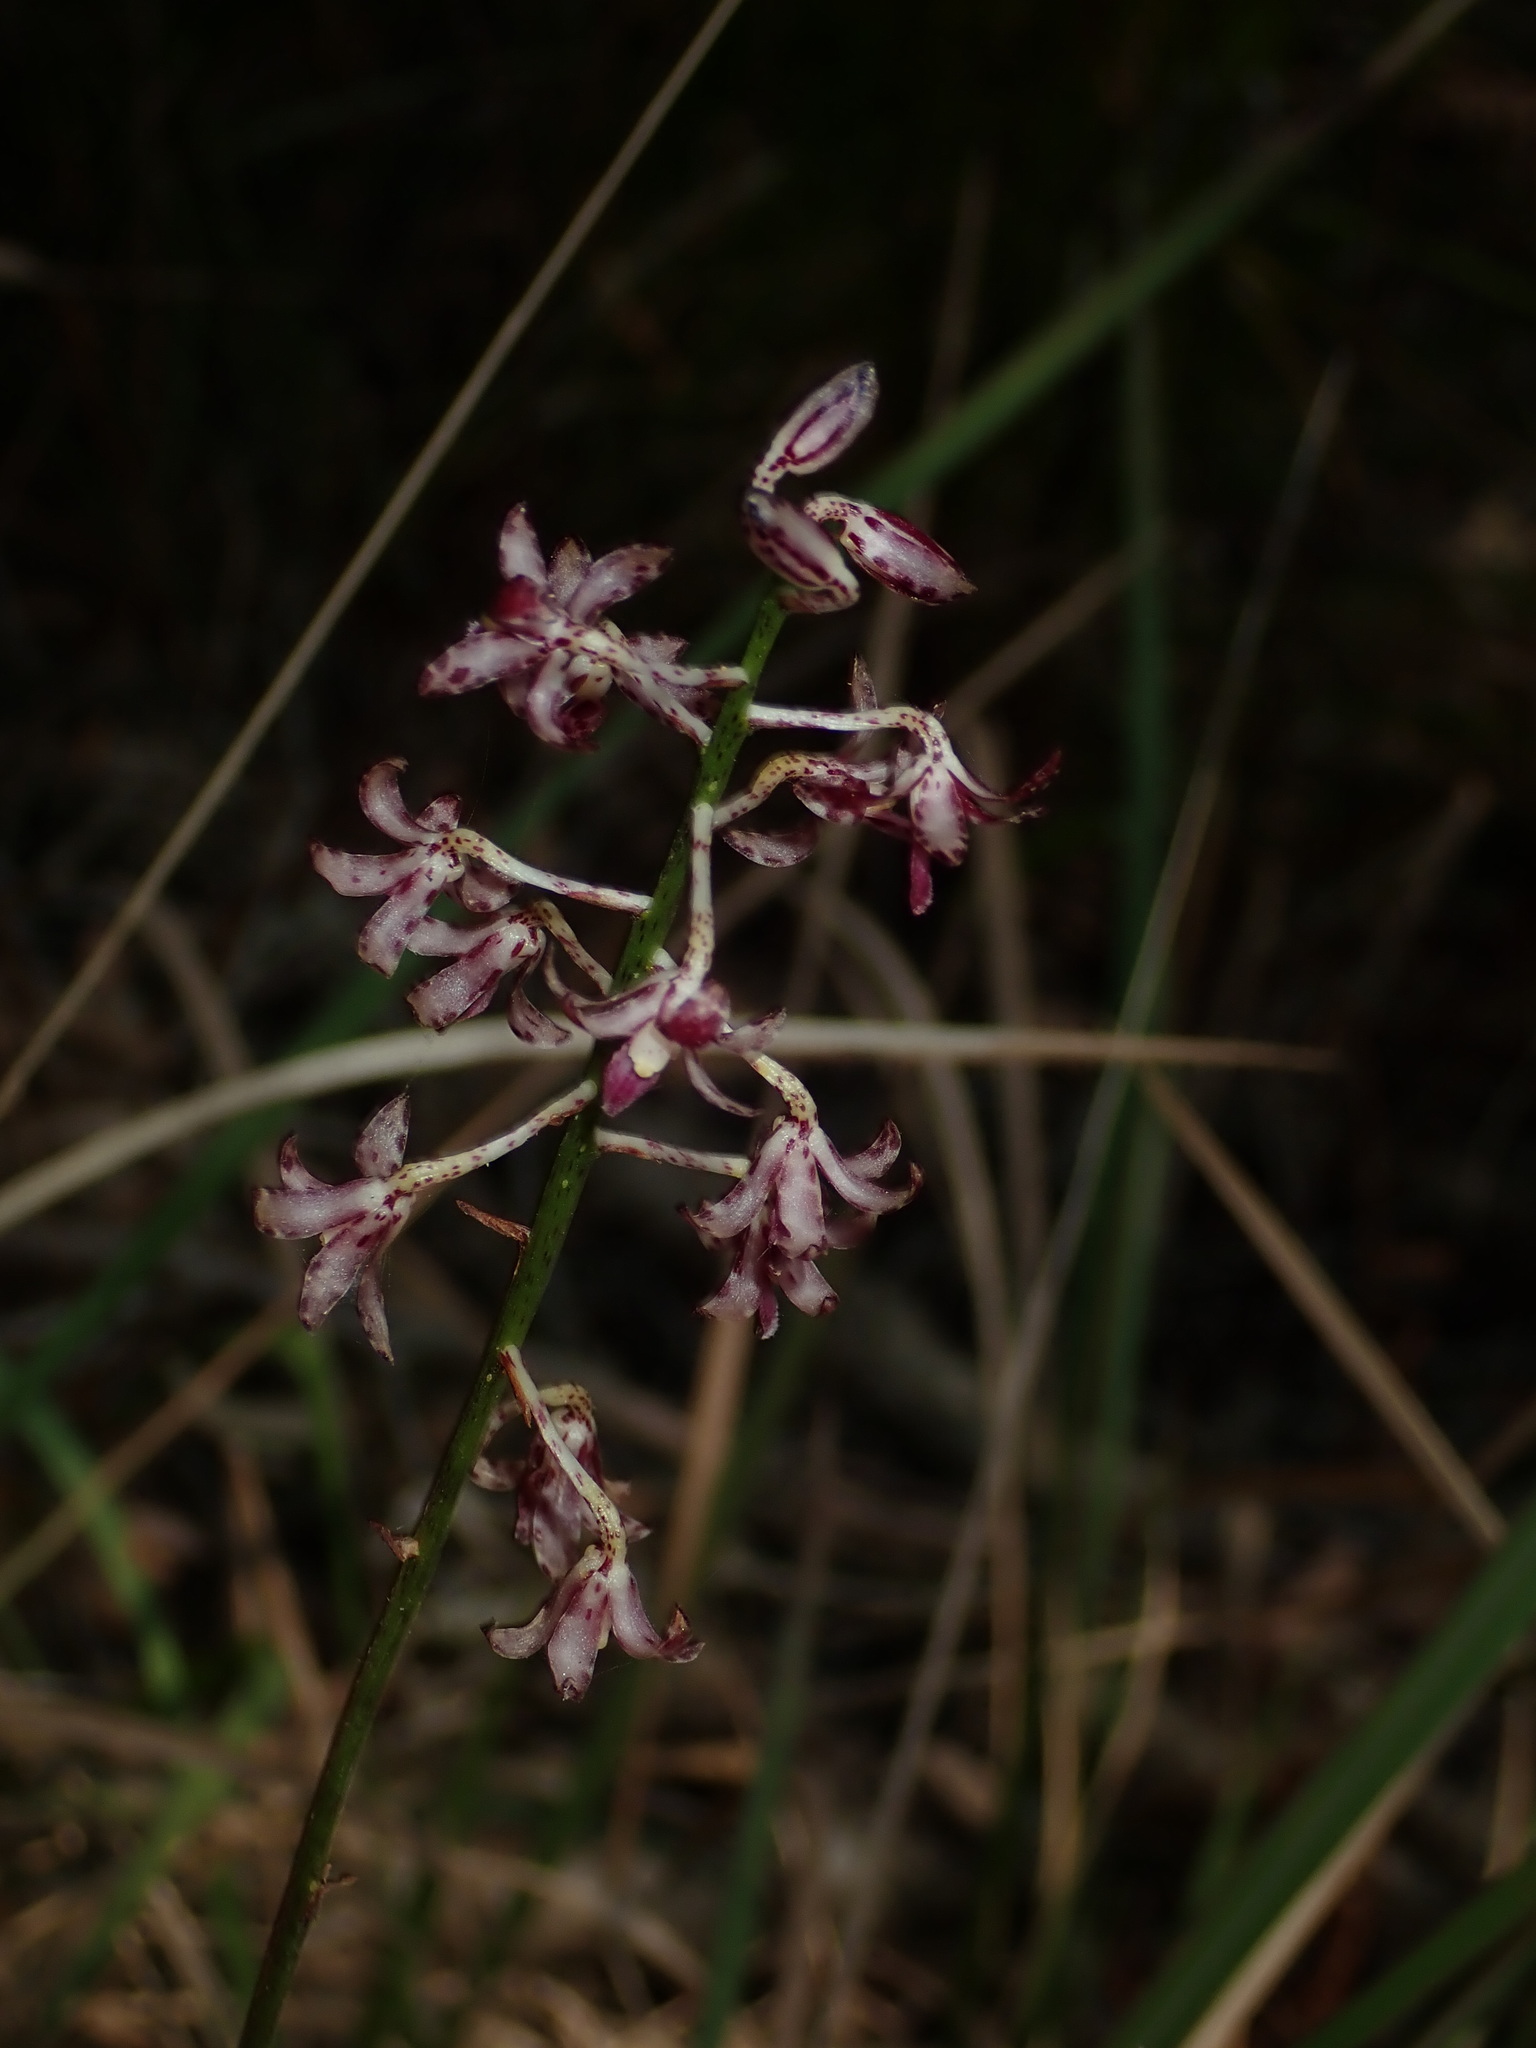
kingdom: Plantae
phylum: Tracheophyta
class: Liliopsida
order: Asparagales
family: Orchidaceae
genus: Dipodium
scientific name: Dipodium variegatum
